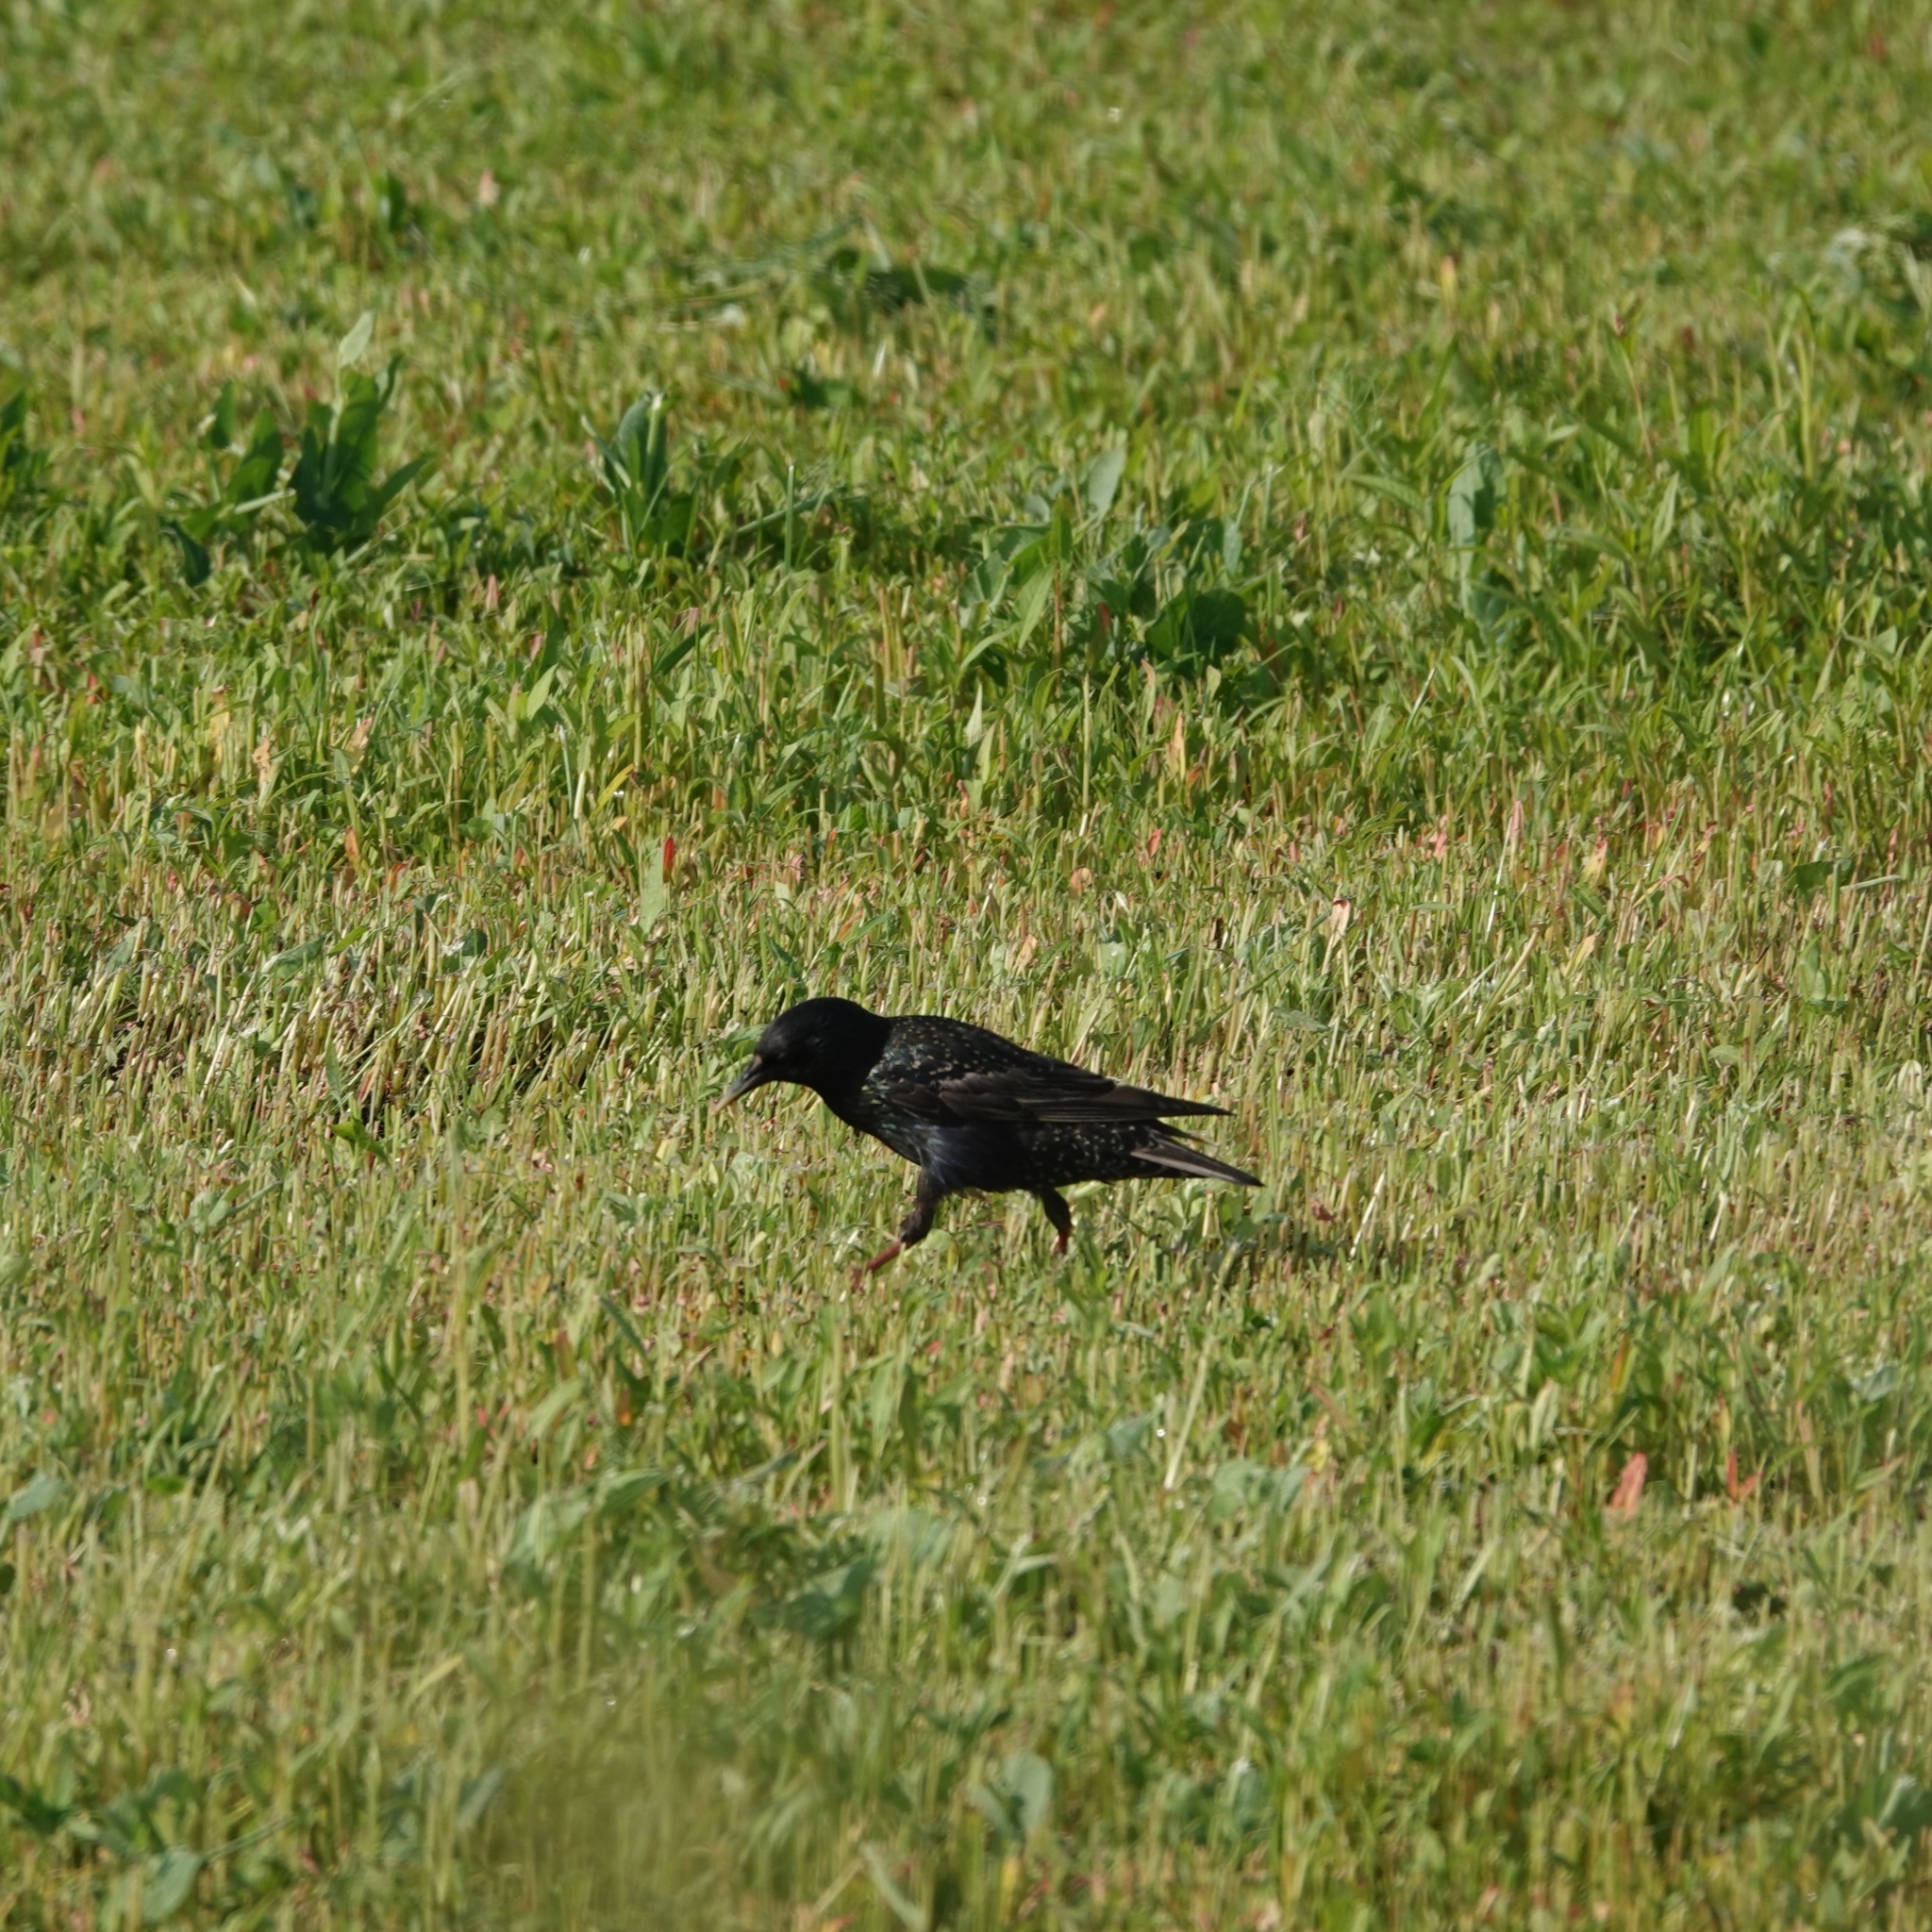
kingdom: Animalia
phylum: Chordata
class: Aves
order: Passeriformes
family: Sturnidae
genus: Sturnus
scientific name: Sturnus vulgaris
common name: Common starling
